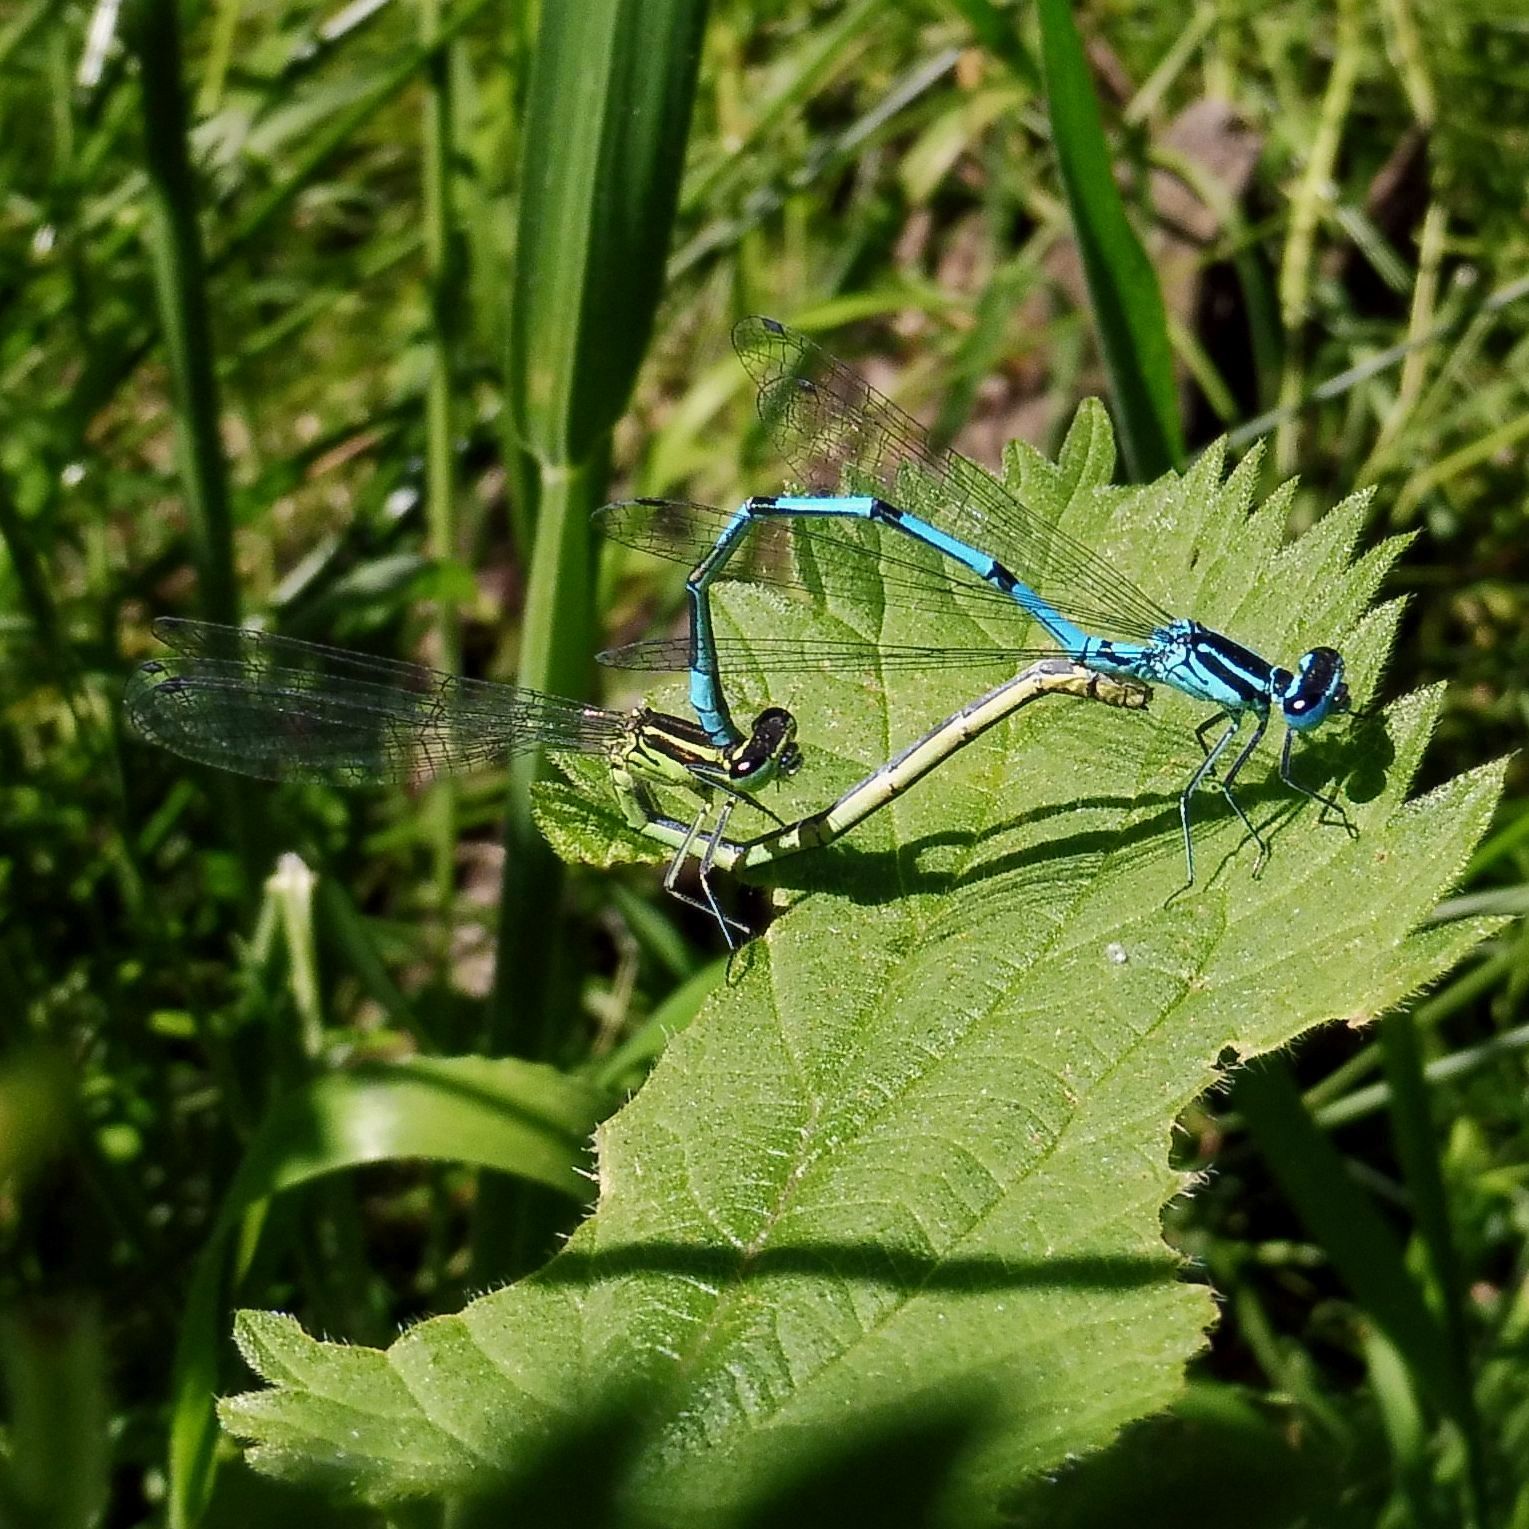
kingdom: Animalia
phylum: Arthropoda
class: Insecta
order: Odonata
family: Coenagrionidae
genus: Coenagrion
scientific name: Coenagrion puella
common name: Azure damselfly
